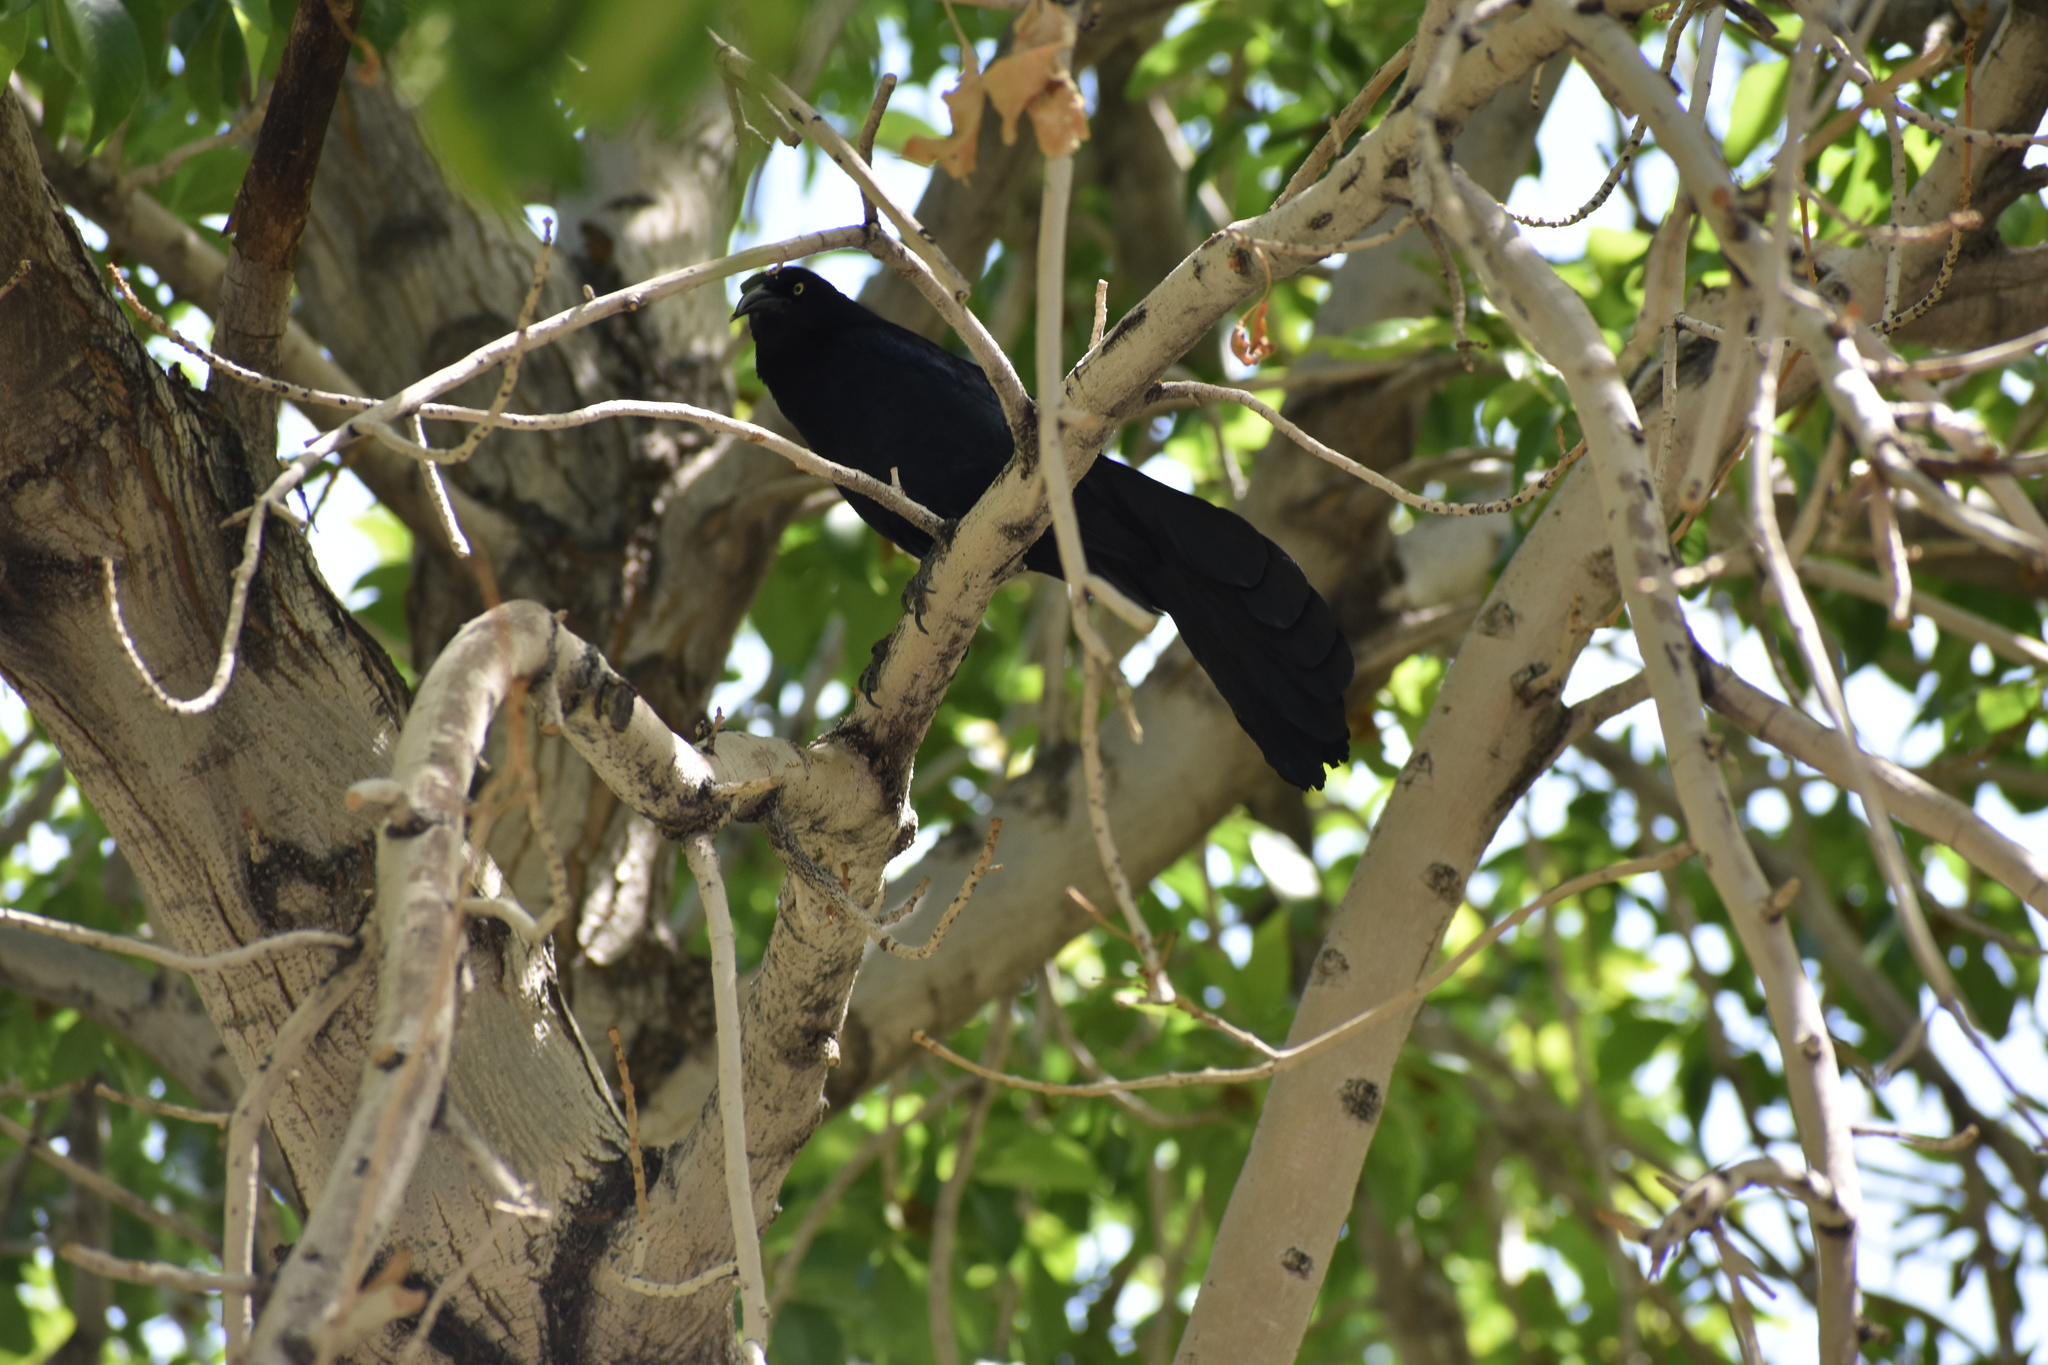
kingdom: Animalia
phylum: Chordata
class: Aves
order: Passeriformes
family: Icteridae
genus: Quiscalus
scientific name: Quiscalus mexicanus
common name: Great-tailed grackle
